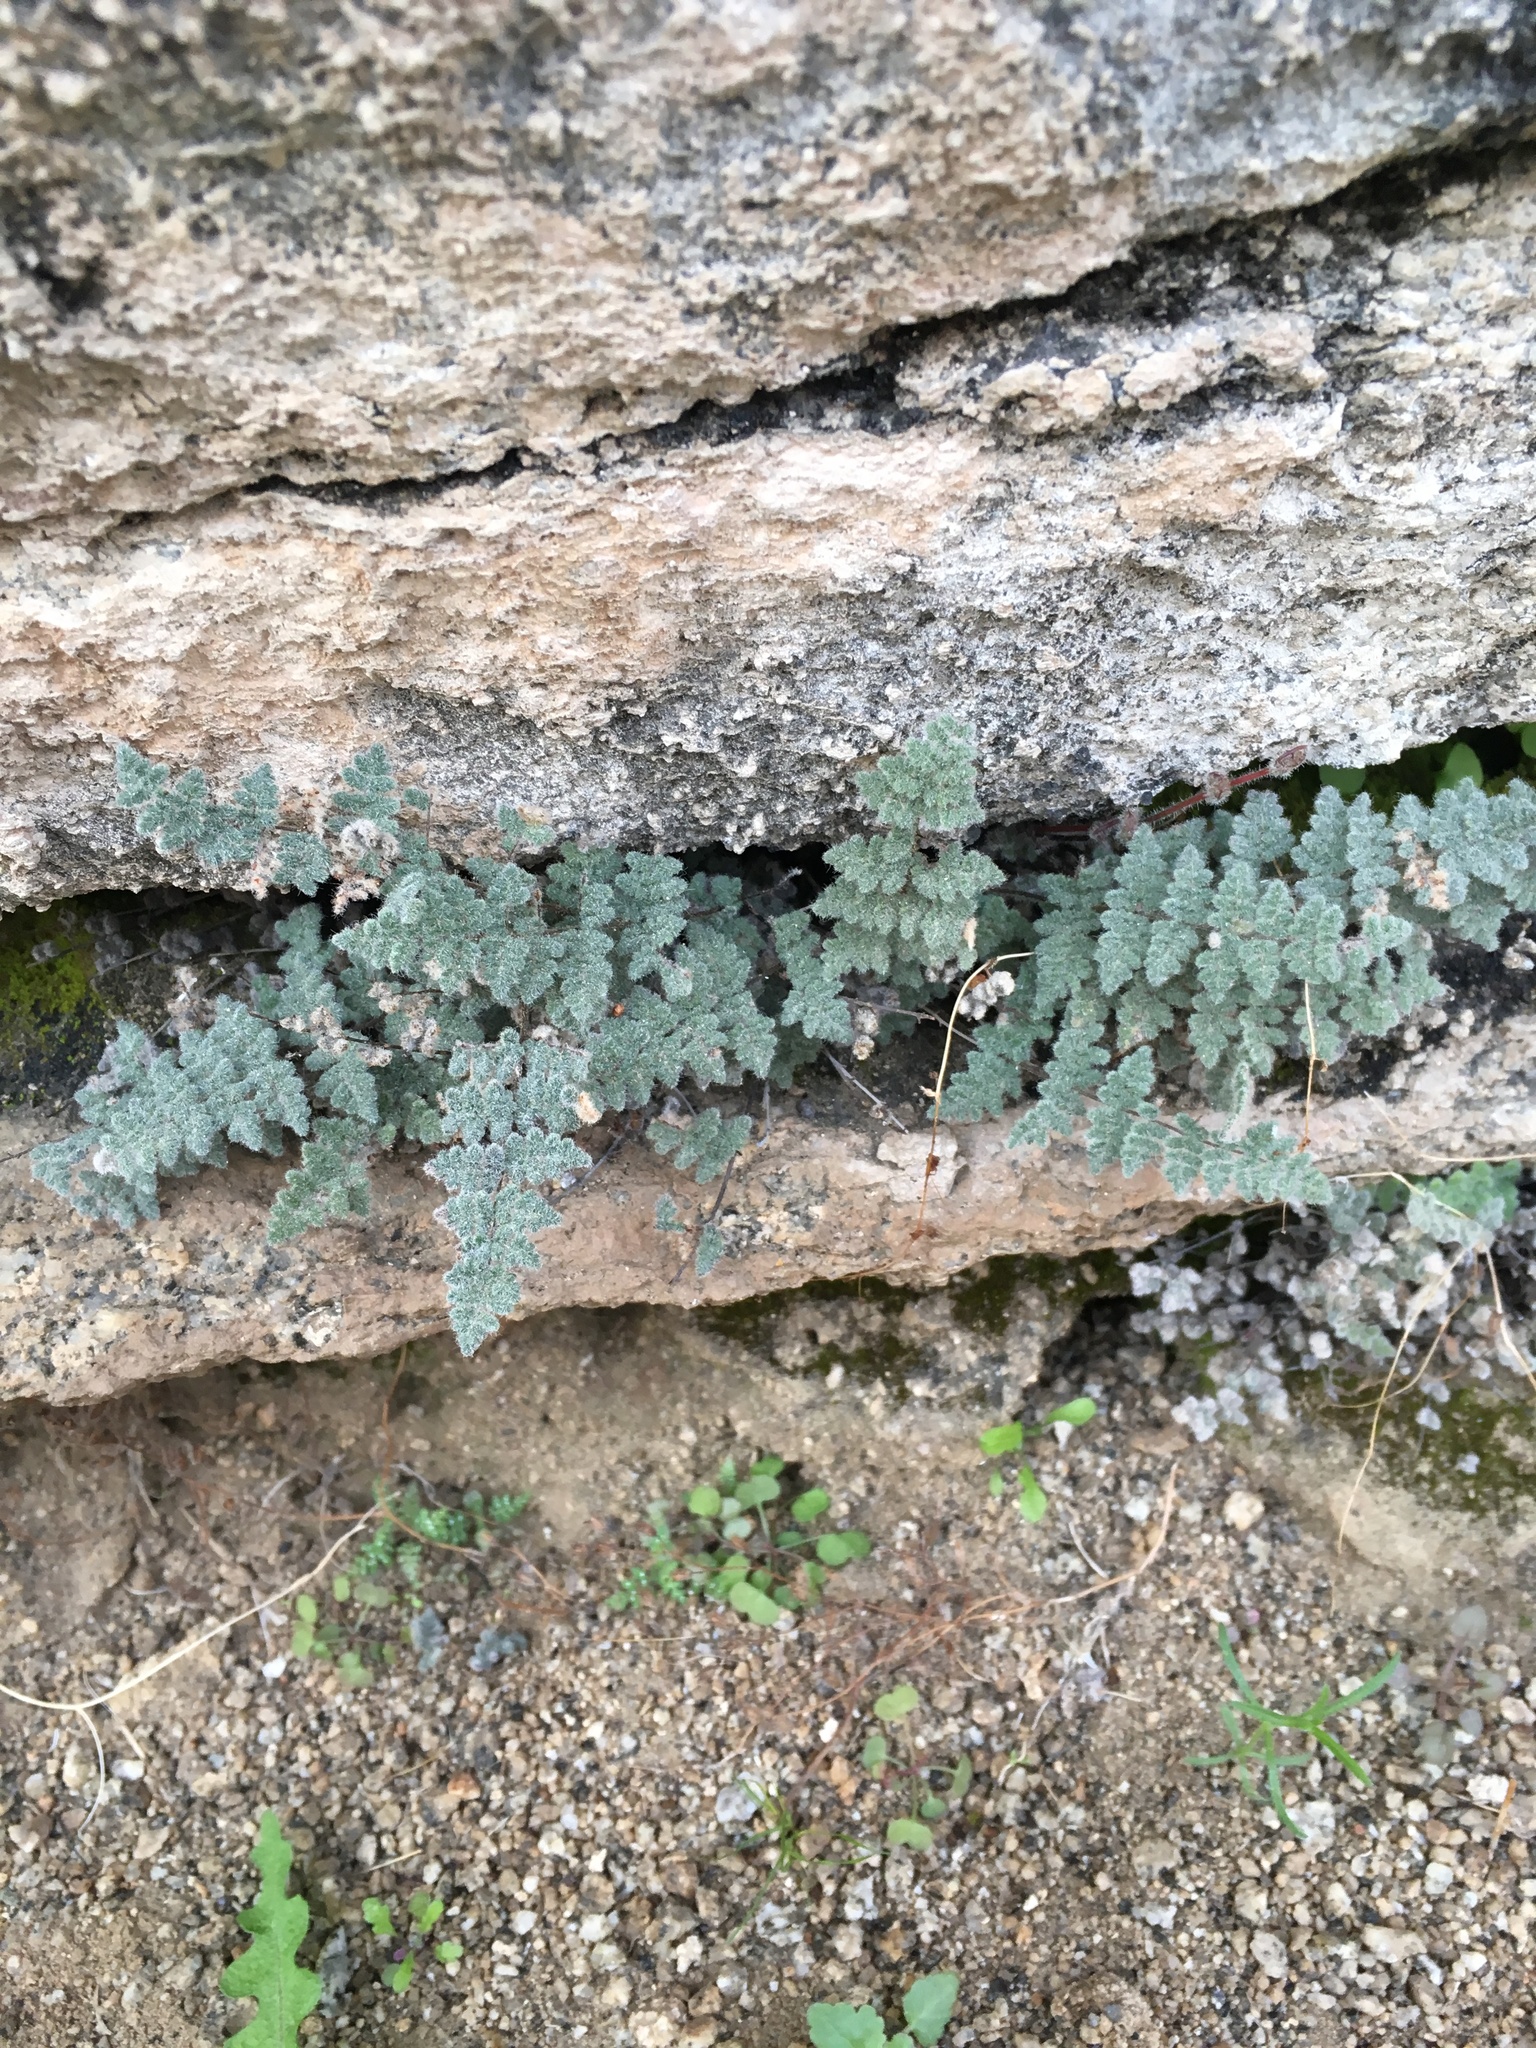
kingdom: Plantae
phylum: Tracheophyta
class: Polypodiopsida
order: Polypodiales
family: Pteridaceae
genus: Myriopteris
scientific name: Myriopteris parryi
